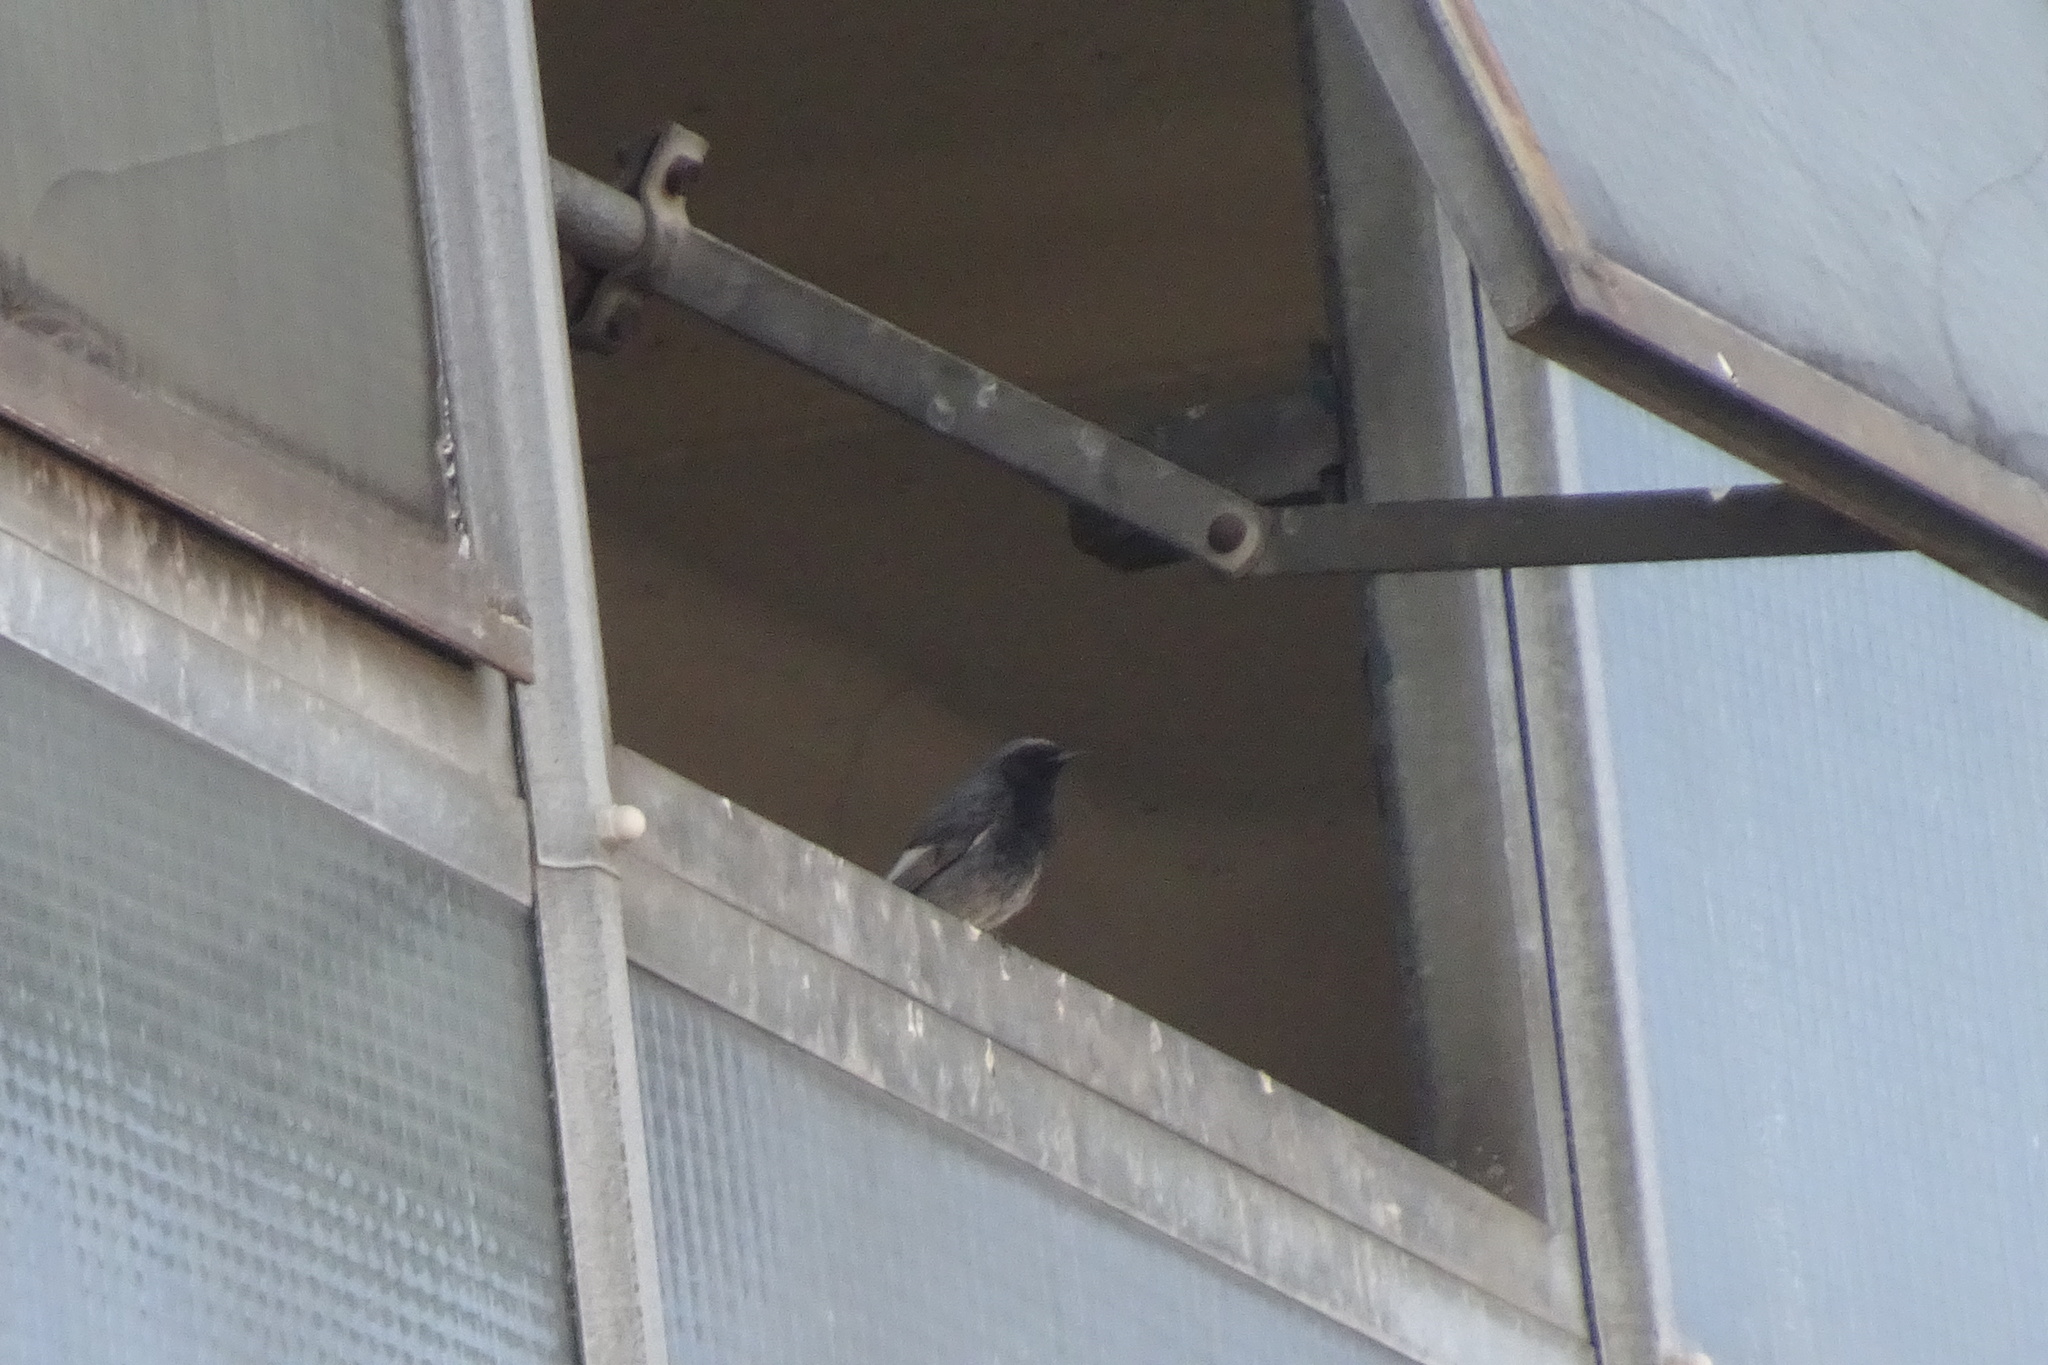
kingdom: Animalia
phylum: Chordata
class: Aves
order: Passeriformes
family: Muscicapidae
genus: Phoenicurus
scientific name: Phoenicurus ochruros
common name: Black redstart
